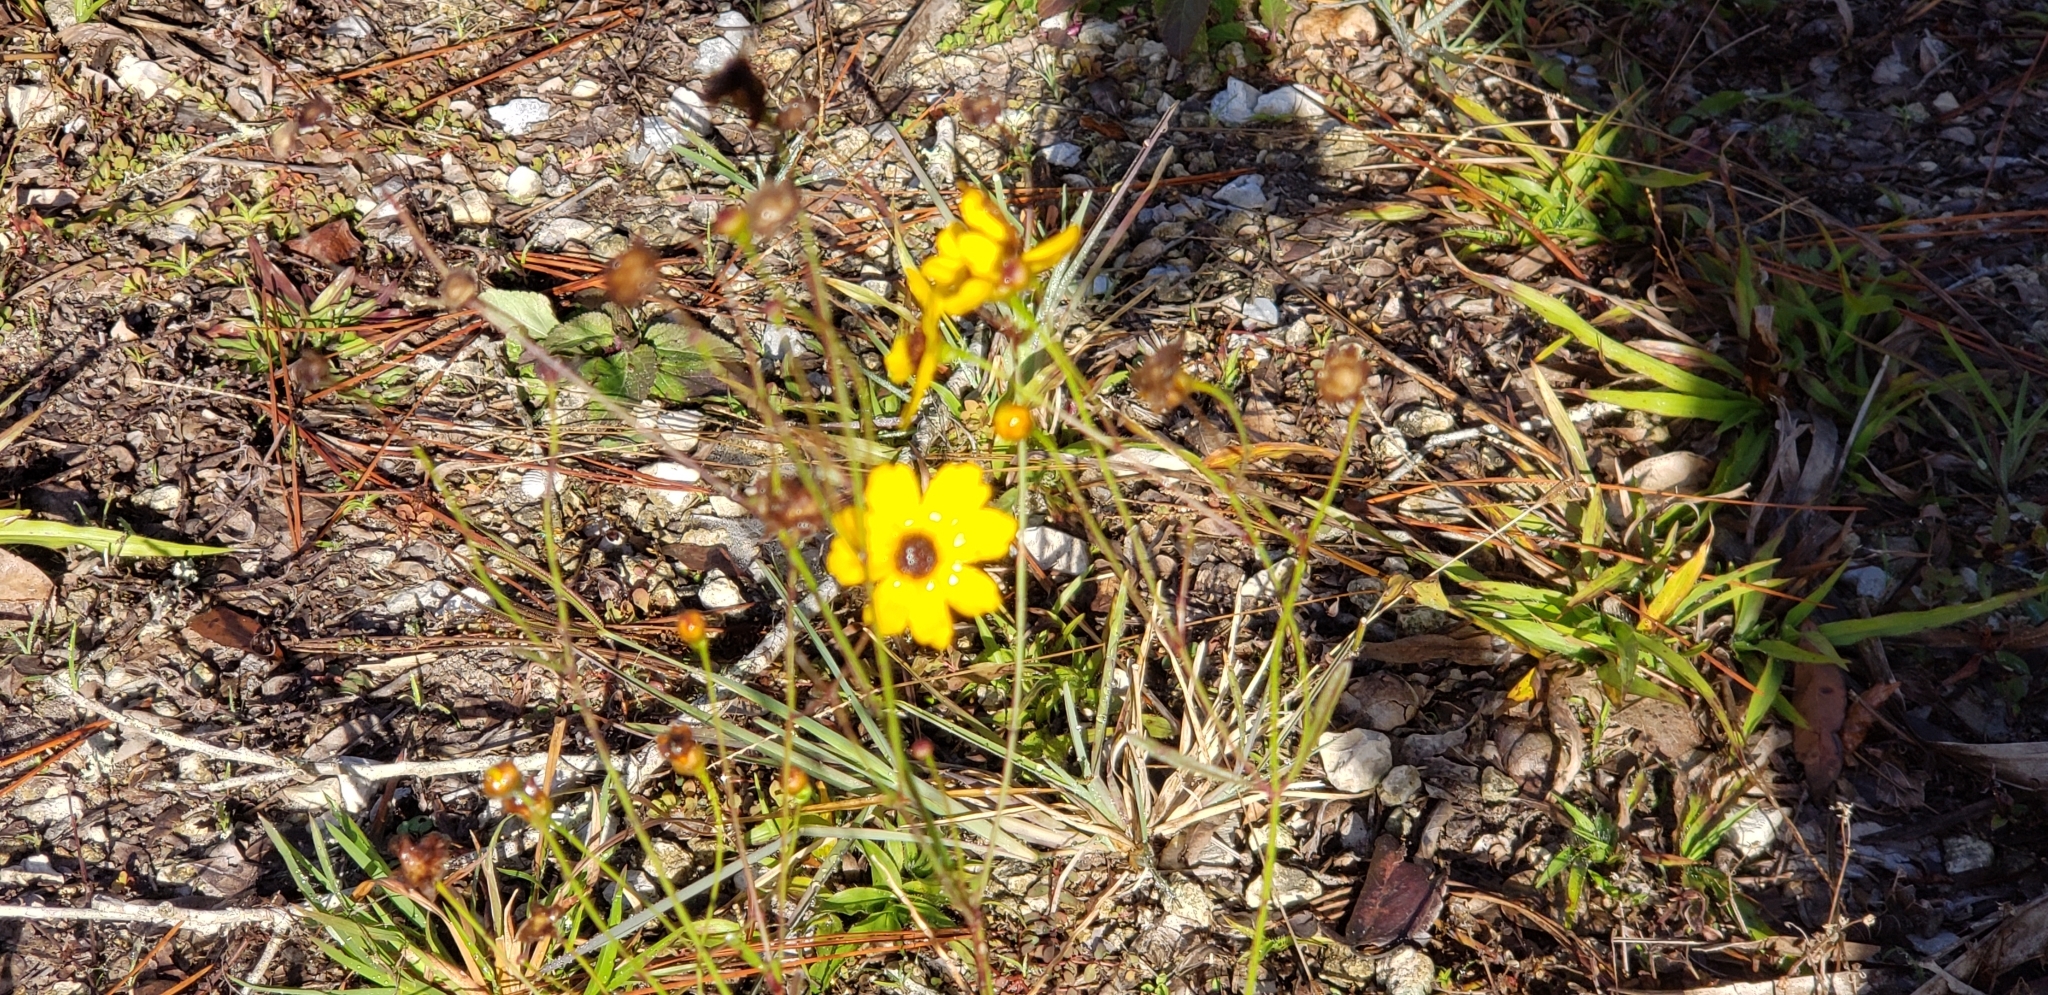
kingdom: Plantae
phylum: Tracheophyta
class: Magnoliopsida
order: Asterales
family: Asteraceae
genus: Coreopsis
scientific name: Coreopsis gladiata
